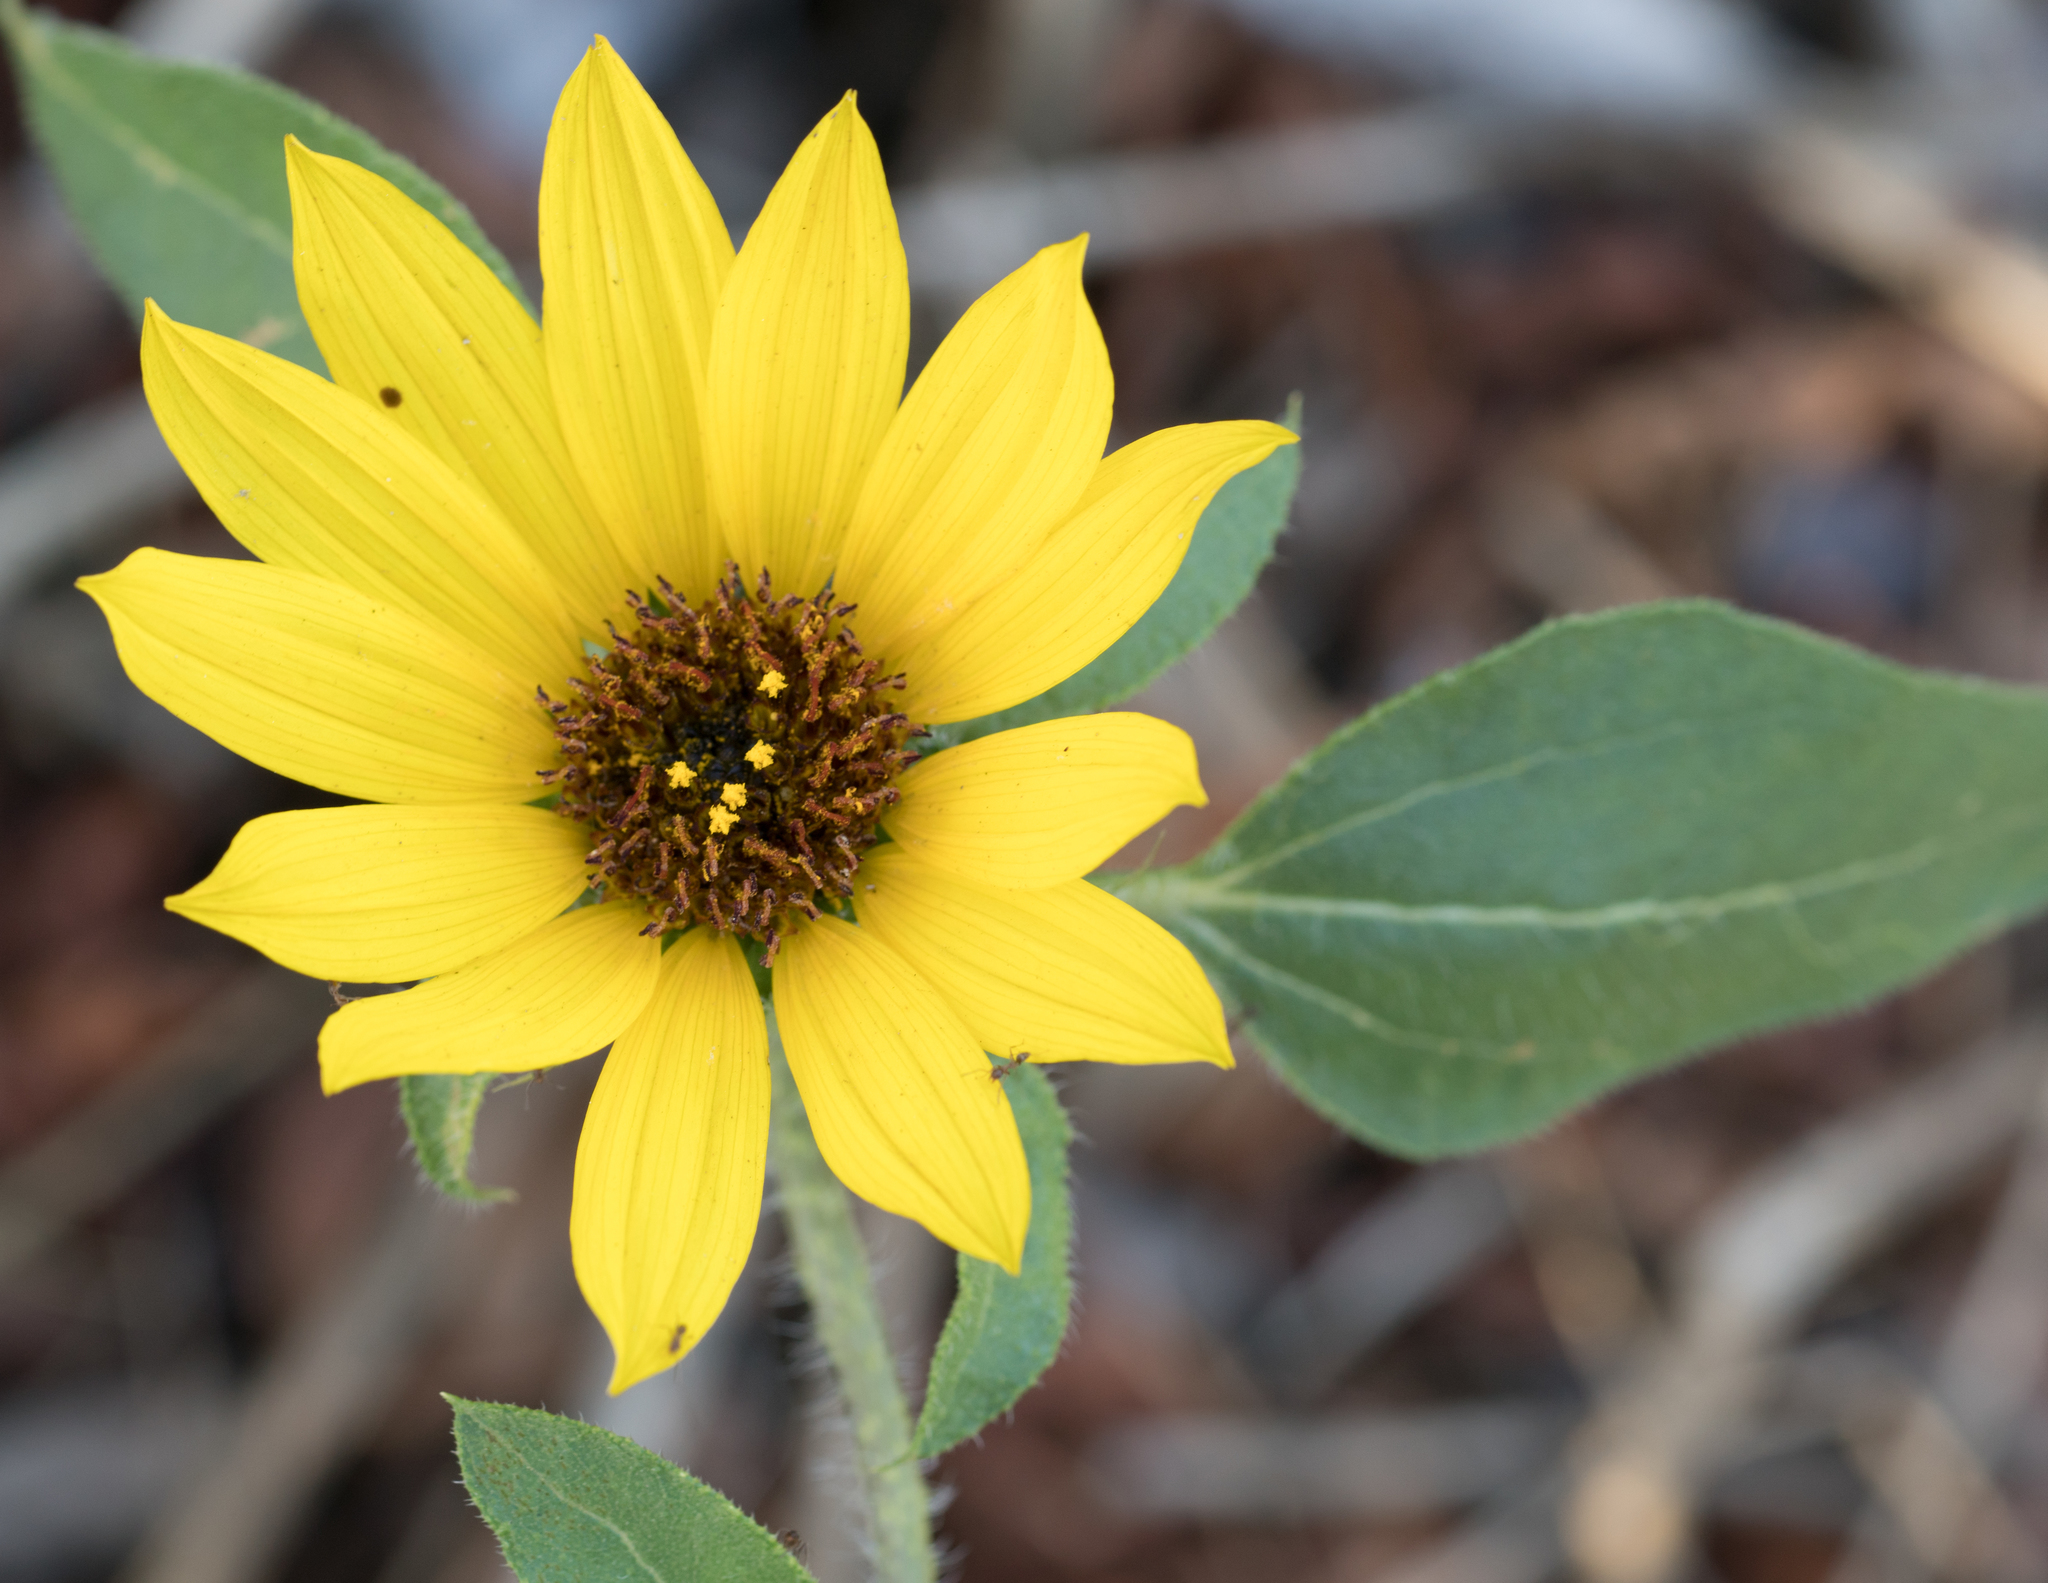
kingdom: Plantae
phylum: Tracheophyta
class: Magnoliopsida
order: Asterales
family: Asteraceae
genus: Helianthus
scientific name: Helianthus annuus
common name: Sunflower
